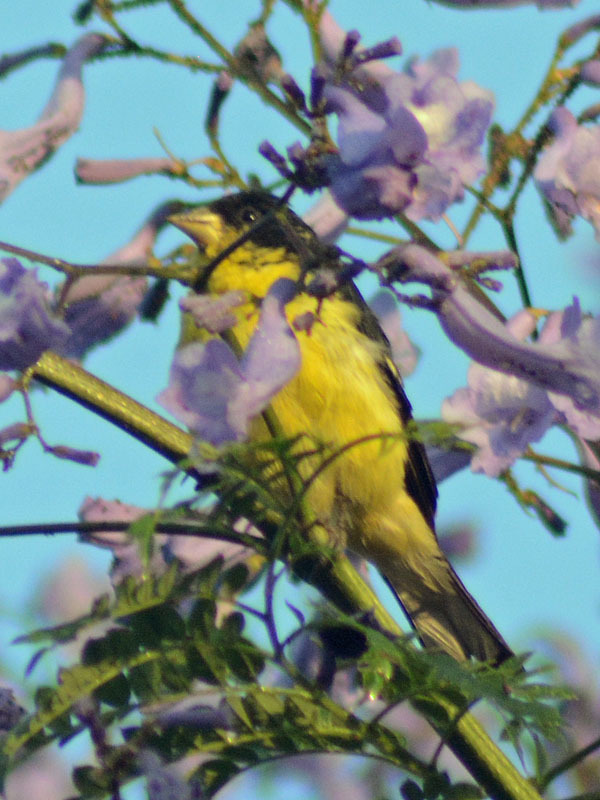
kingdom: Animalia
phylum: Chordata
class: Aves
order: Passeriformes
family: Fringillidae
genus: Spinus
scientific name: Spinus psaltria
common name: Lesser goldfinch
